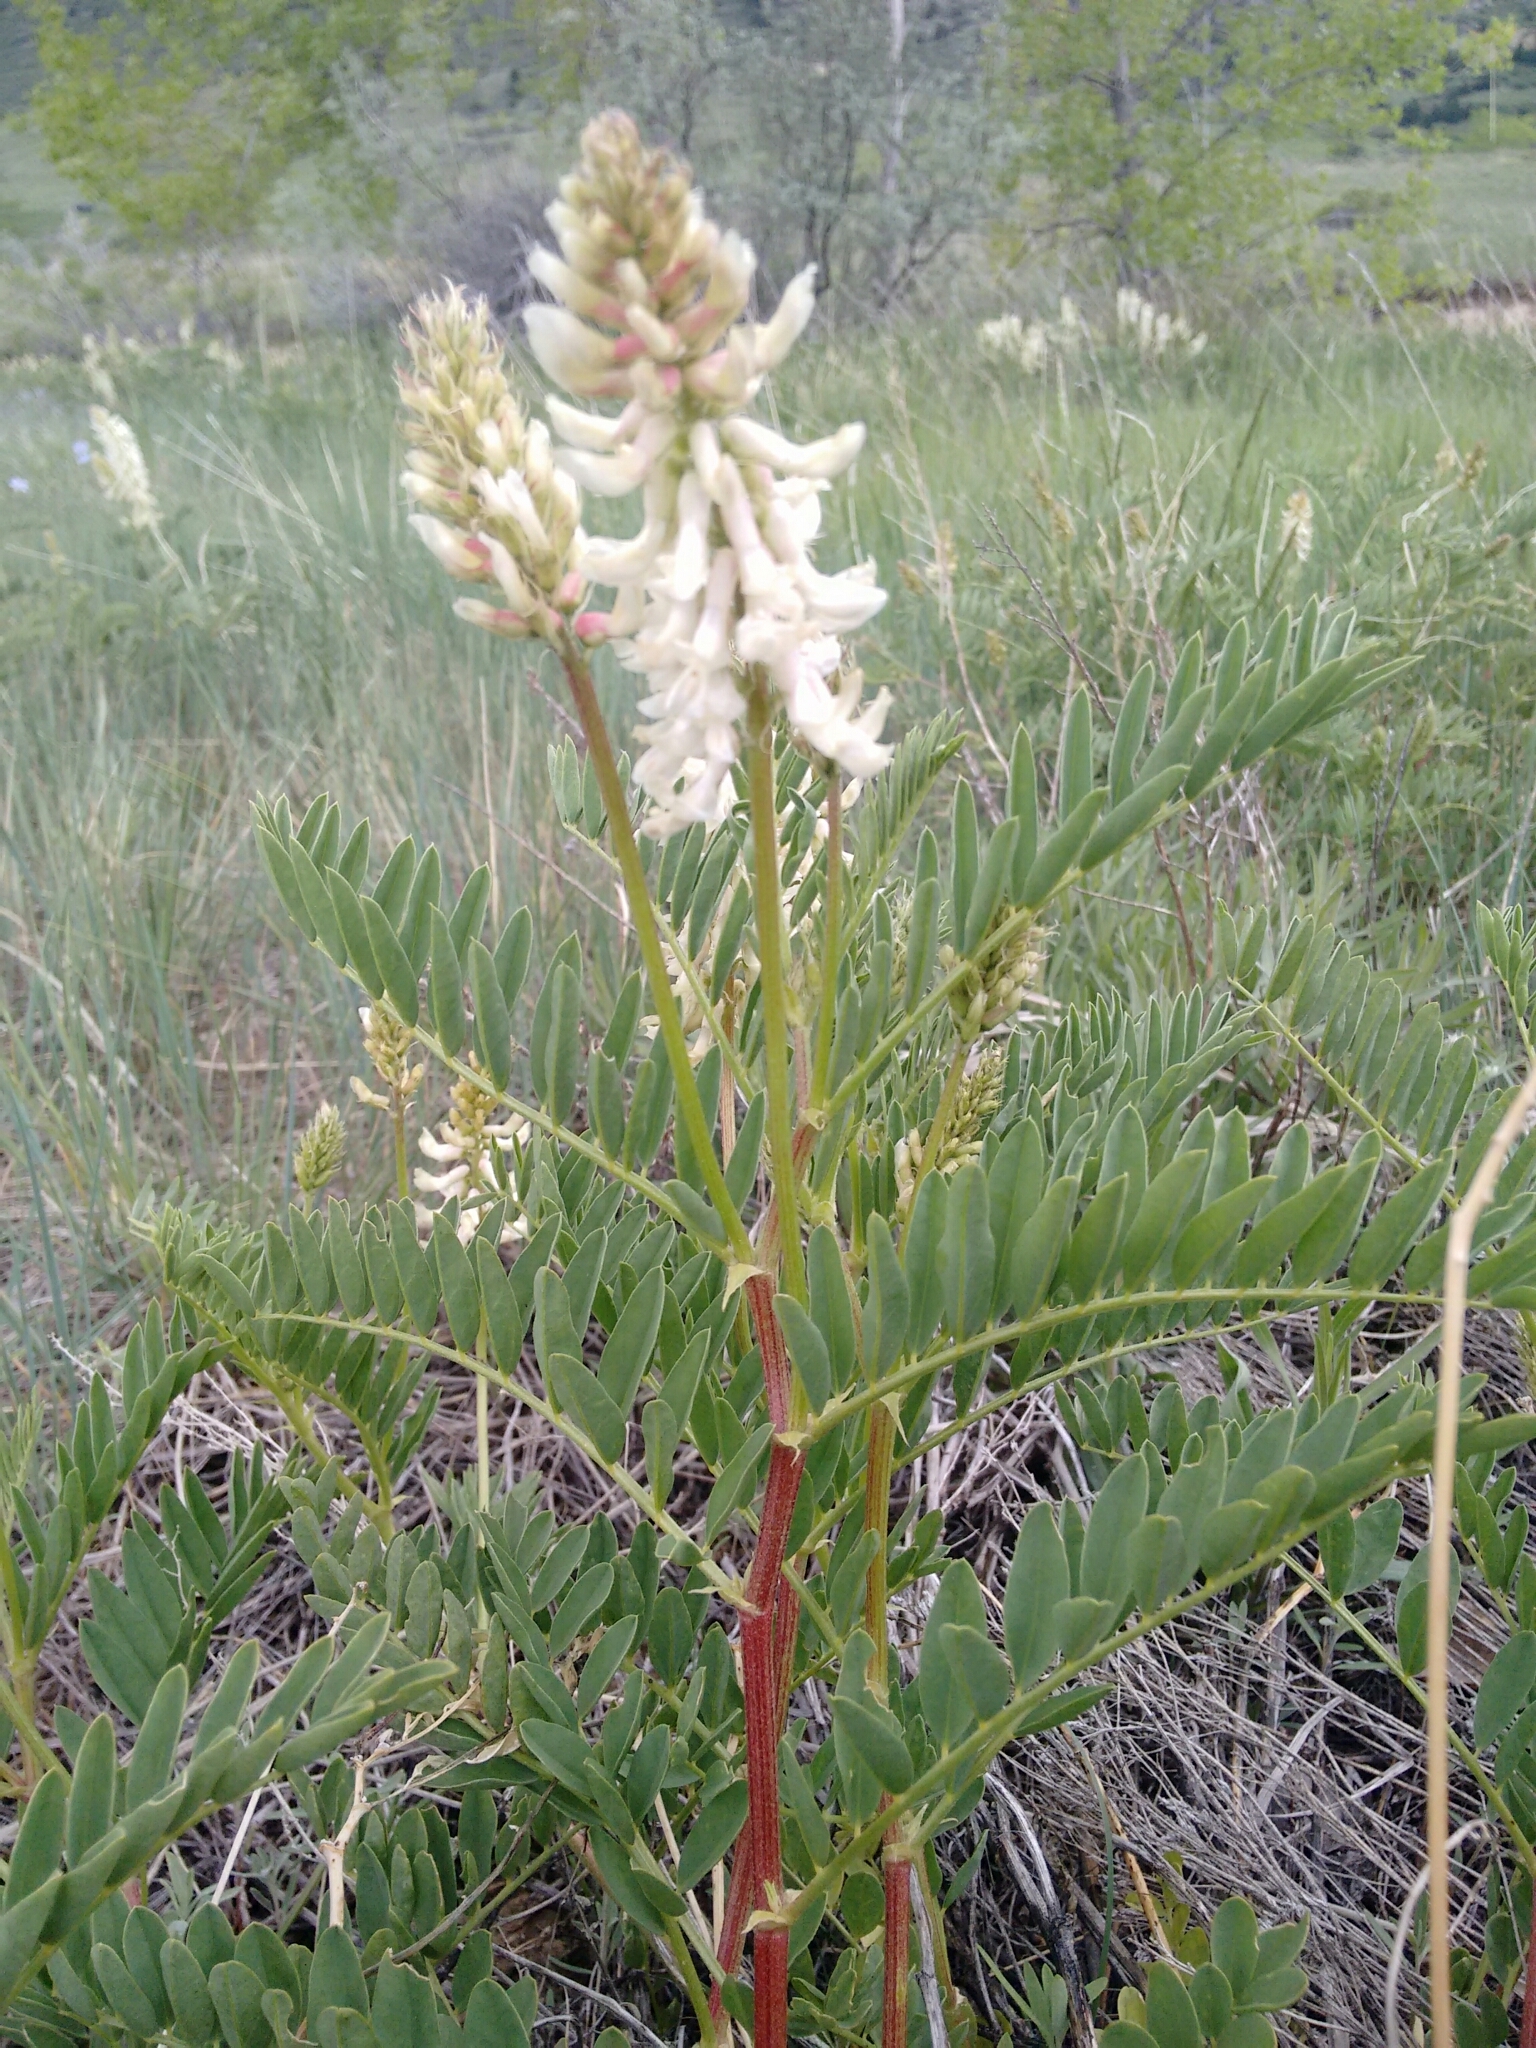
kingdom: Plantae
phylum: Tracheophyta
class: Magnoliopsida
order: Fabales
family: Fabaceae
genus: Astragalus
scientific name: Astragalus bisulcatus
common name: Two-groove milk-vetch
